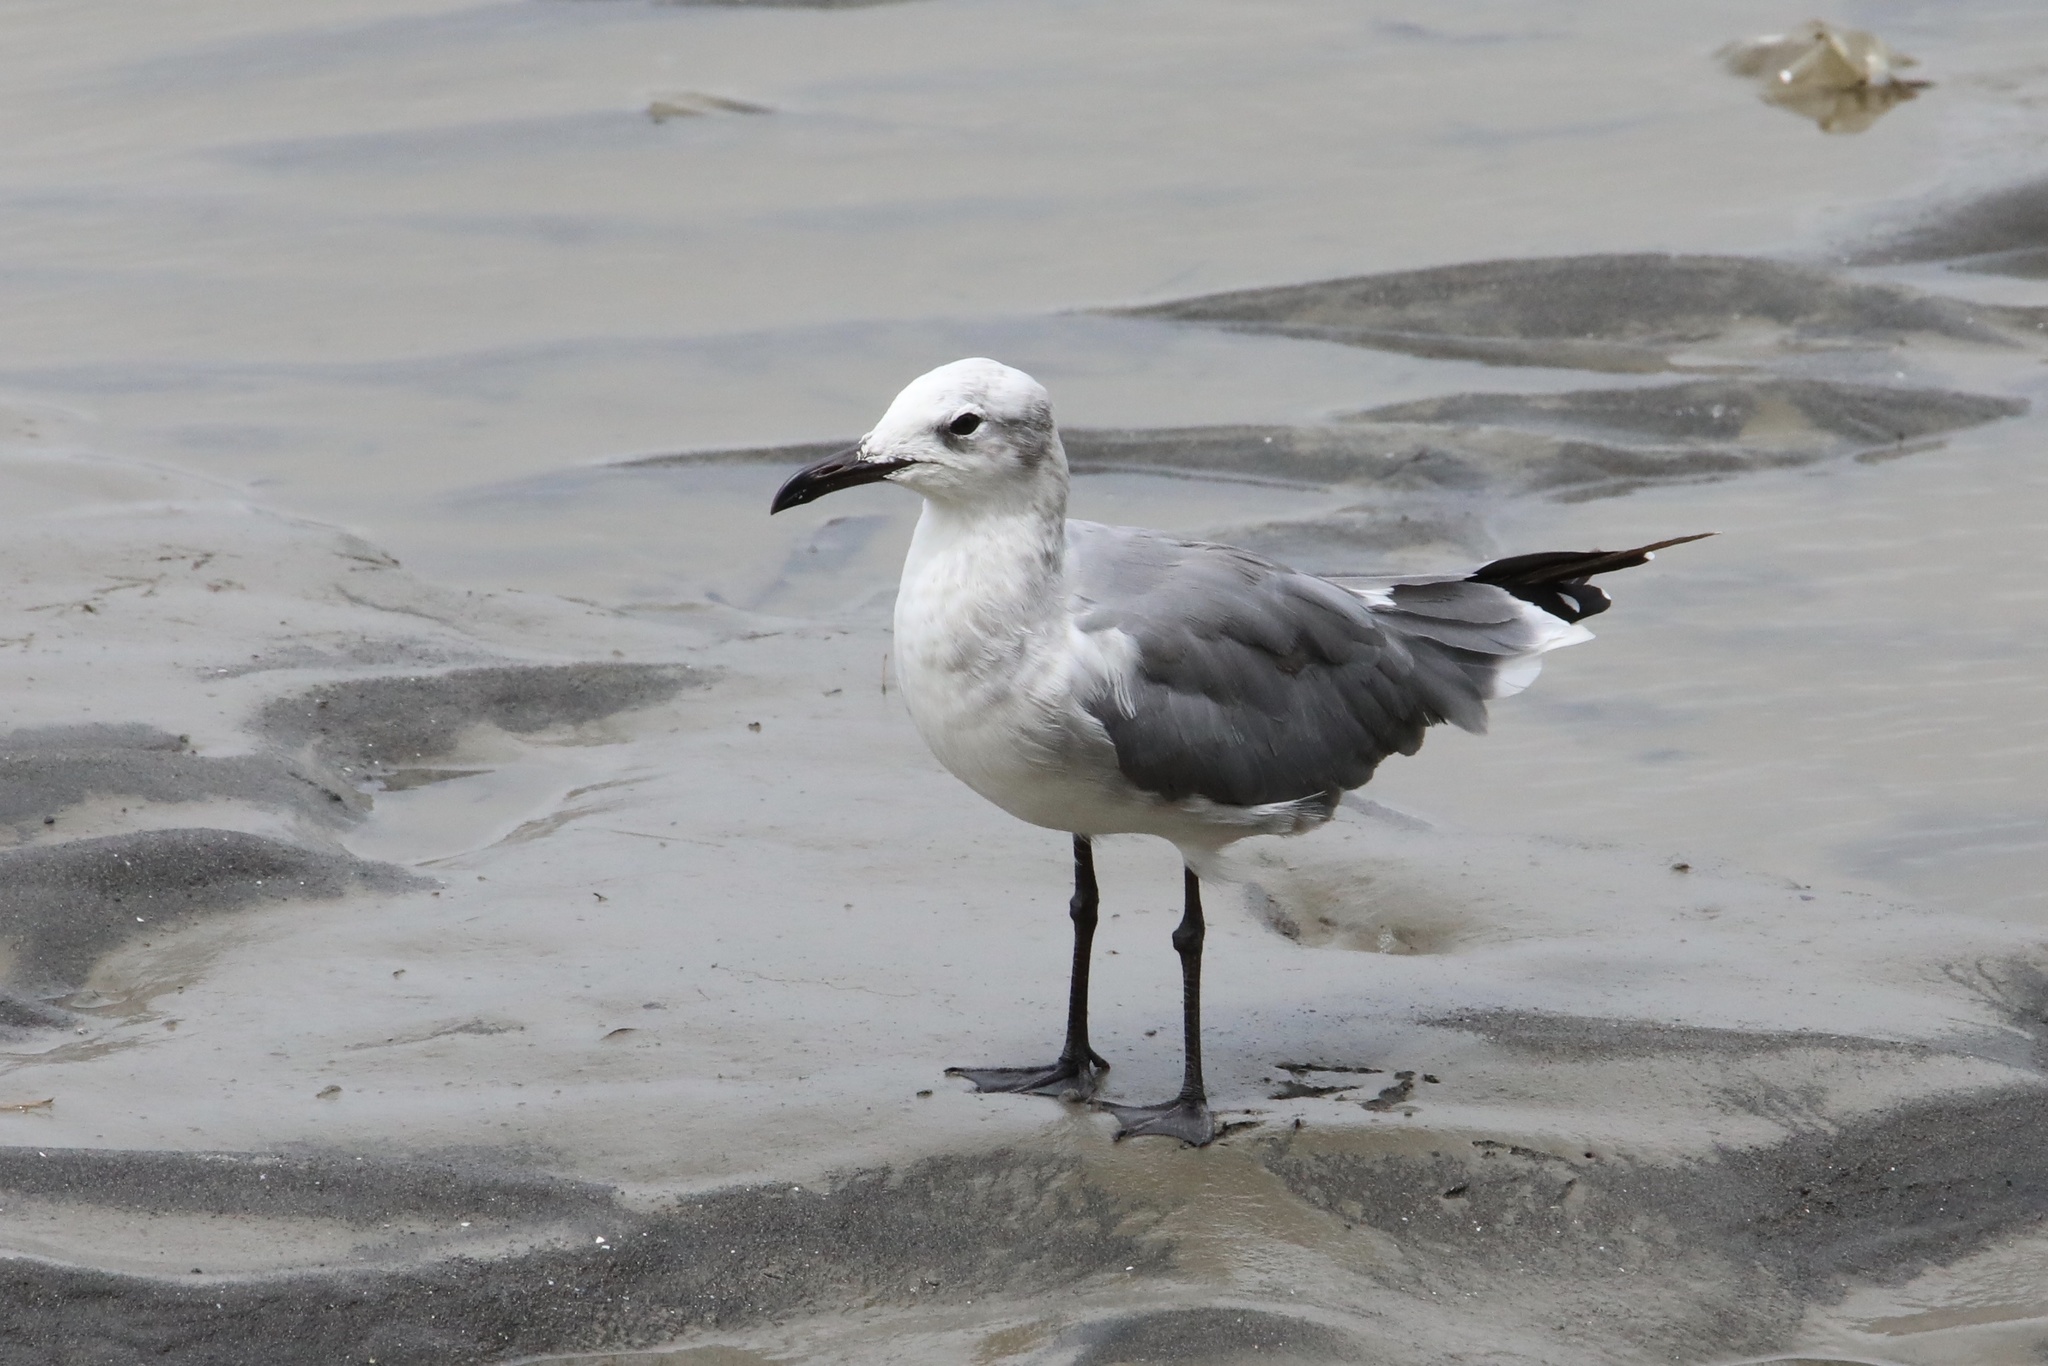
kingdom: Animalia
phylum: Chordata
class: Aves
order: Charadriiformes
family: Laridae
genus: Leucophaeus
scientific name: Leucophaeus atricilla
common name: Laughing gull
